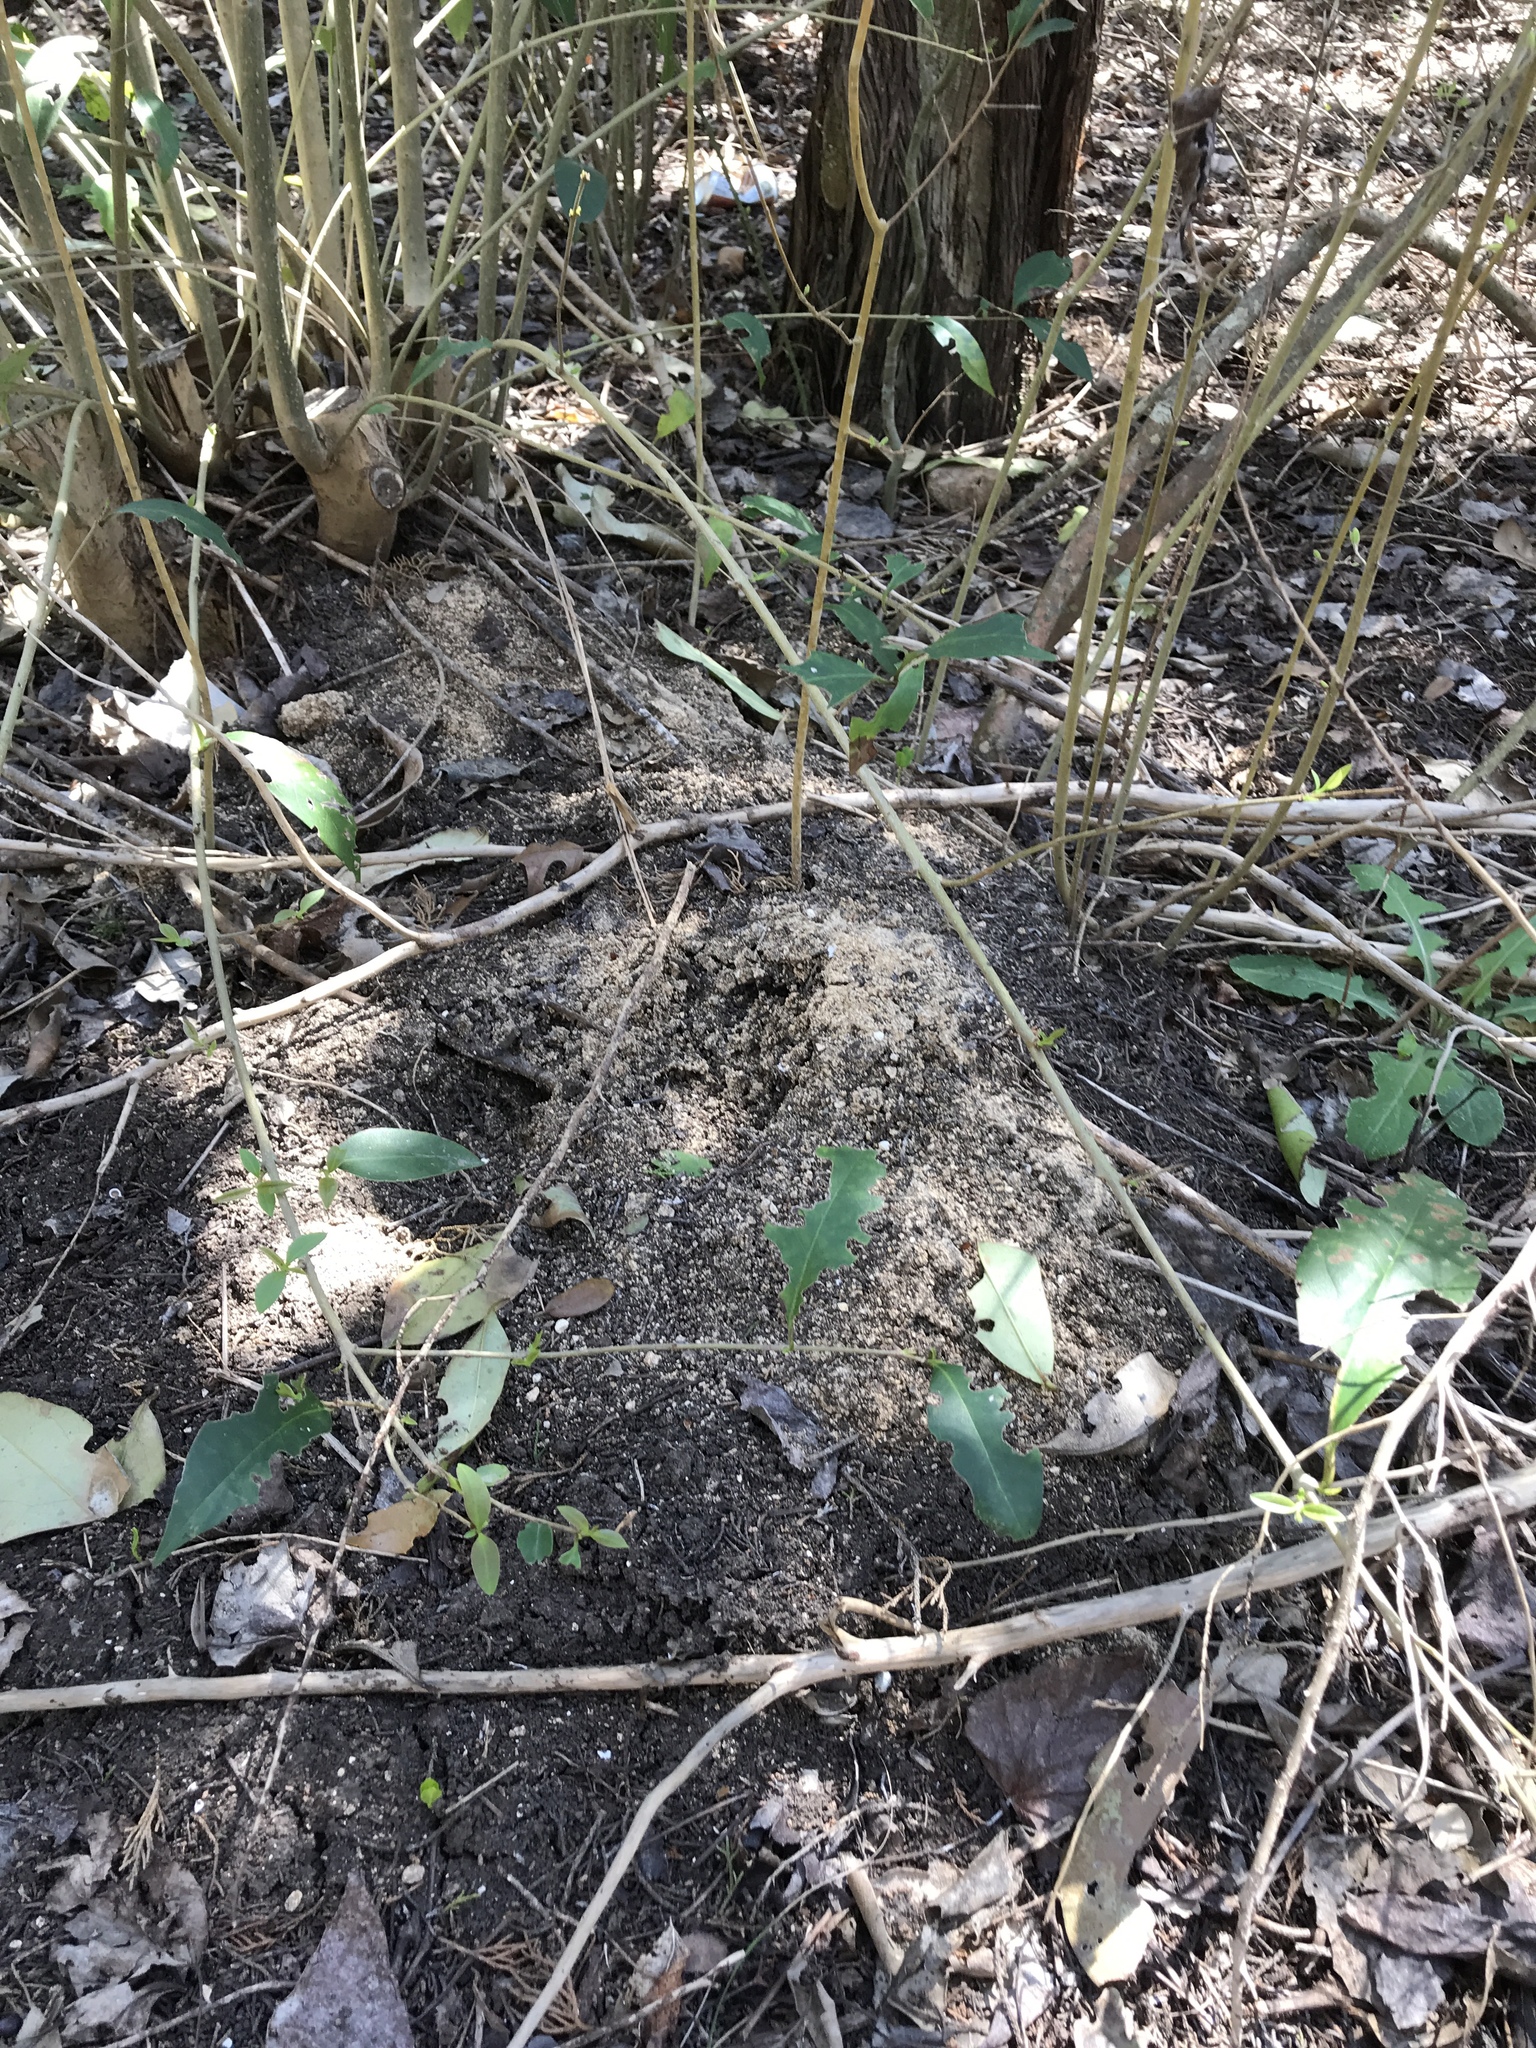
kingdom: Animalia
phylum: Arthropoda
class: Insecta
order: Hymenoptera
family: Formicidae
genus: Atta
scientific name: Atta texana
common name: Texas leafcutting ant
